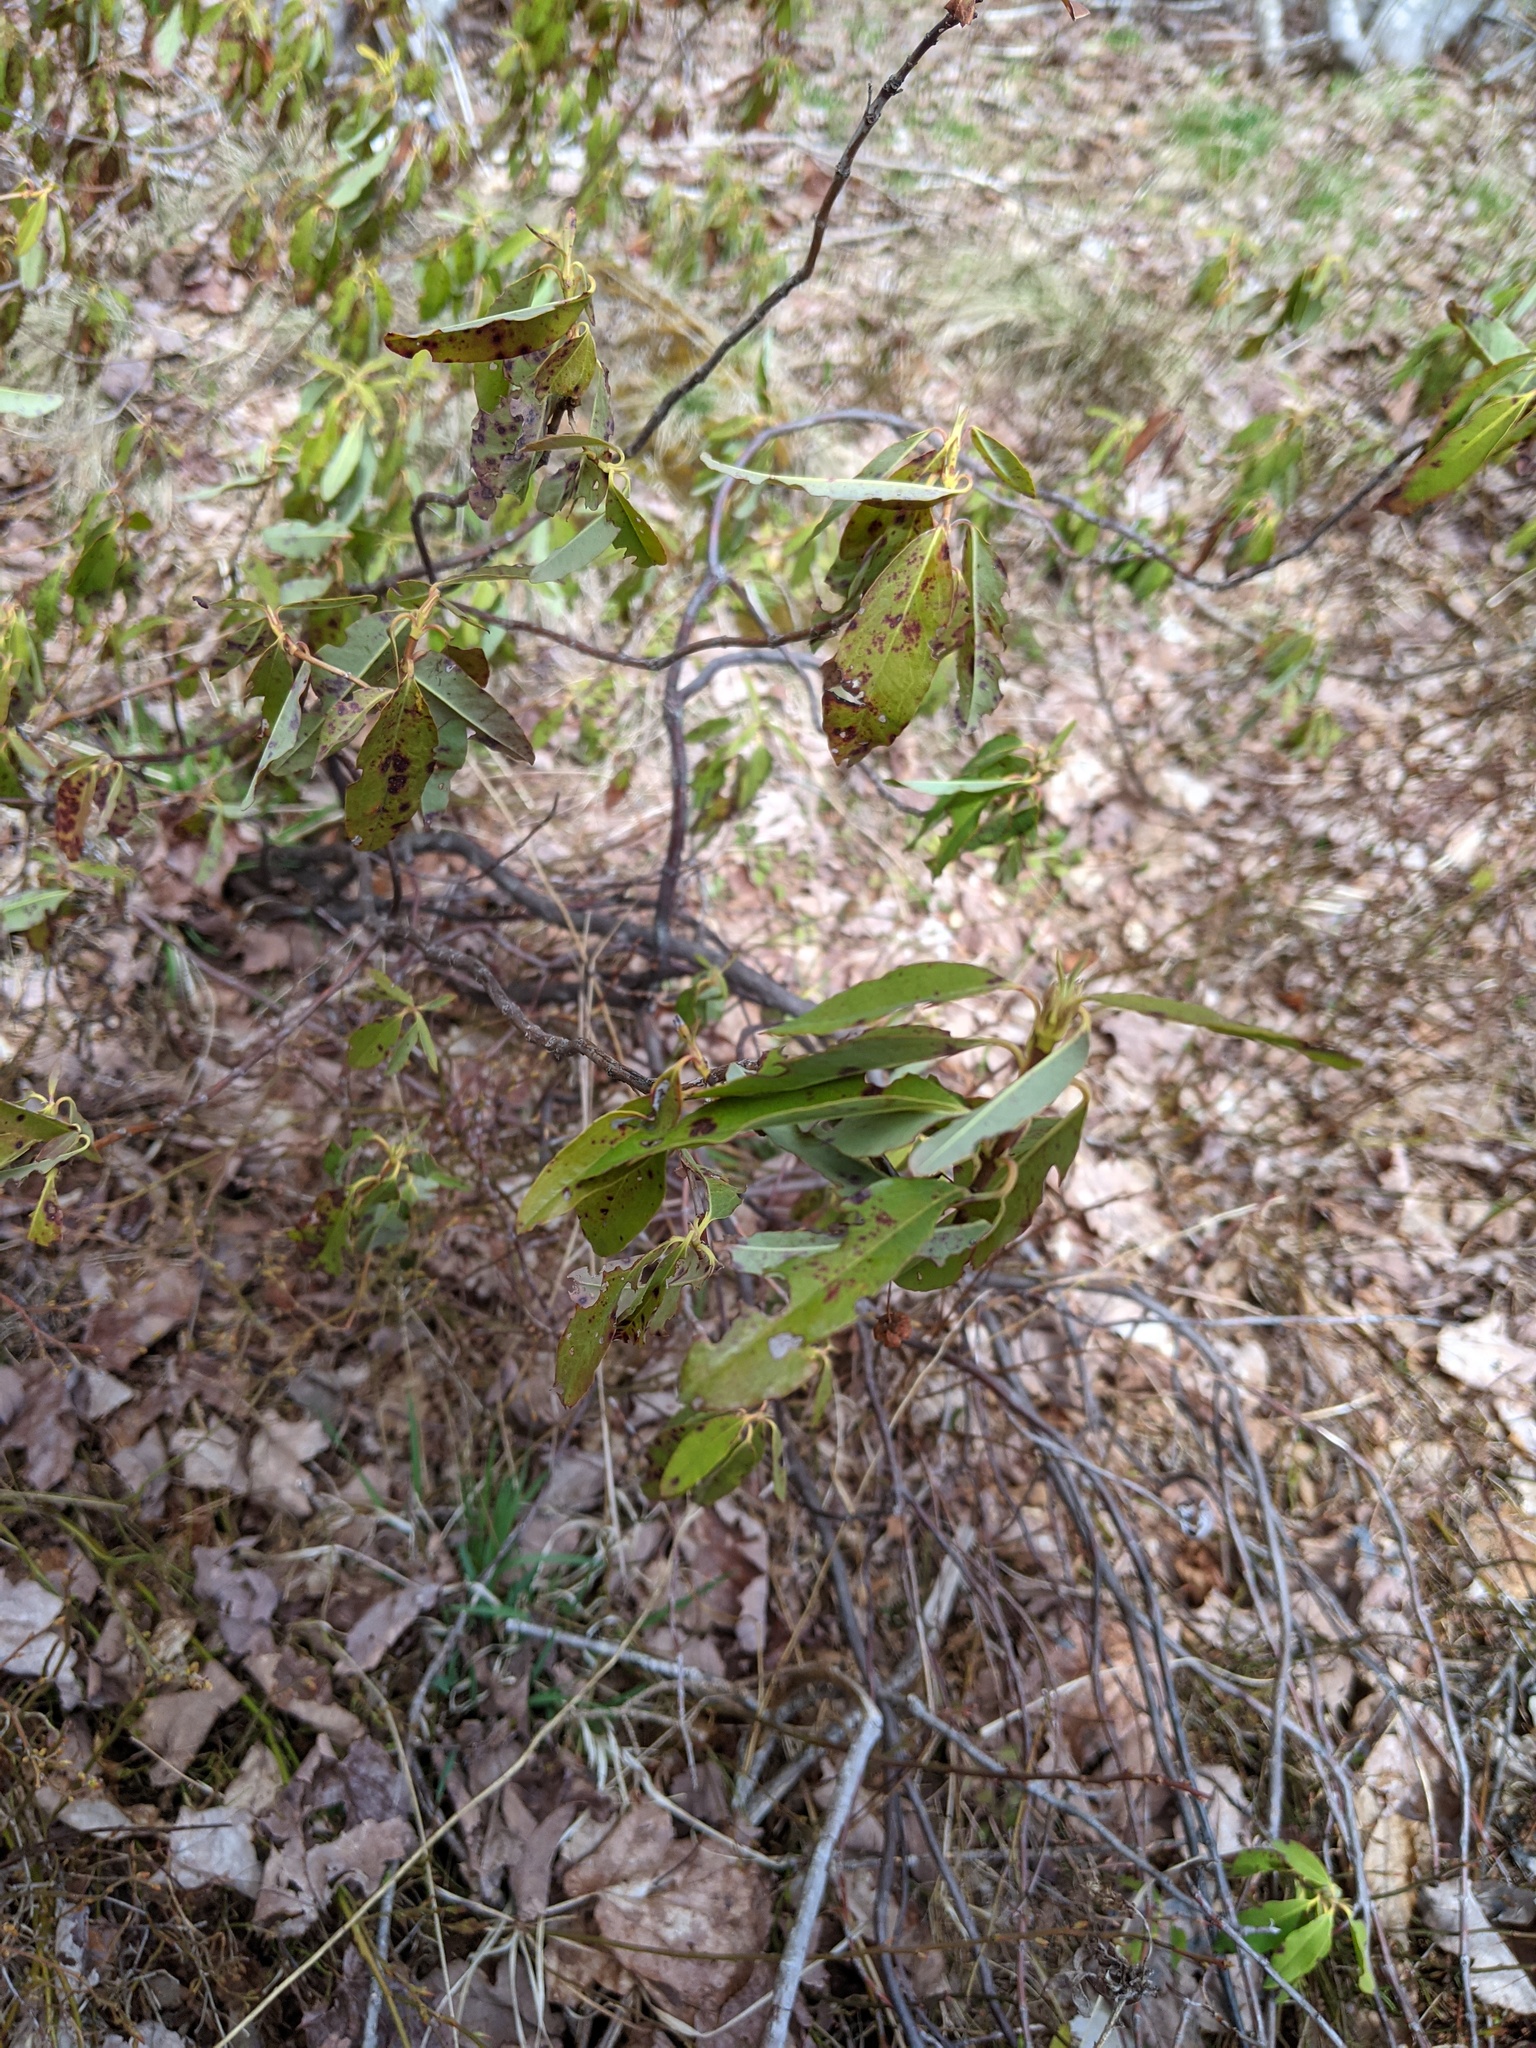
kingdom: Plantae
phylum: Tracheophyta
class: Magnoliopsida
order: Ericales
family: Ericaceae
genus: Kalmia
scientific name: Kalmia angustifolia
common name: Sheep-laurel
